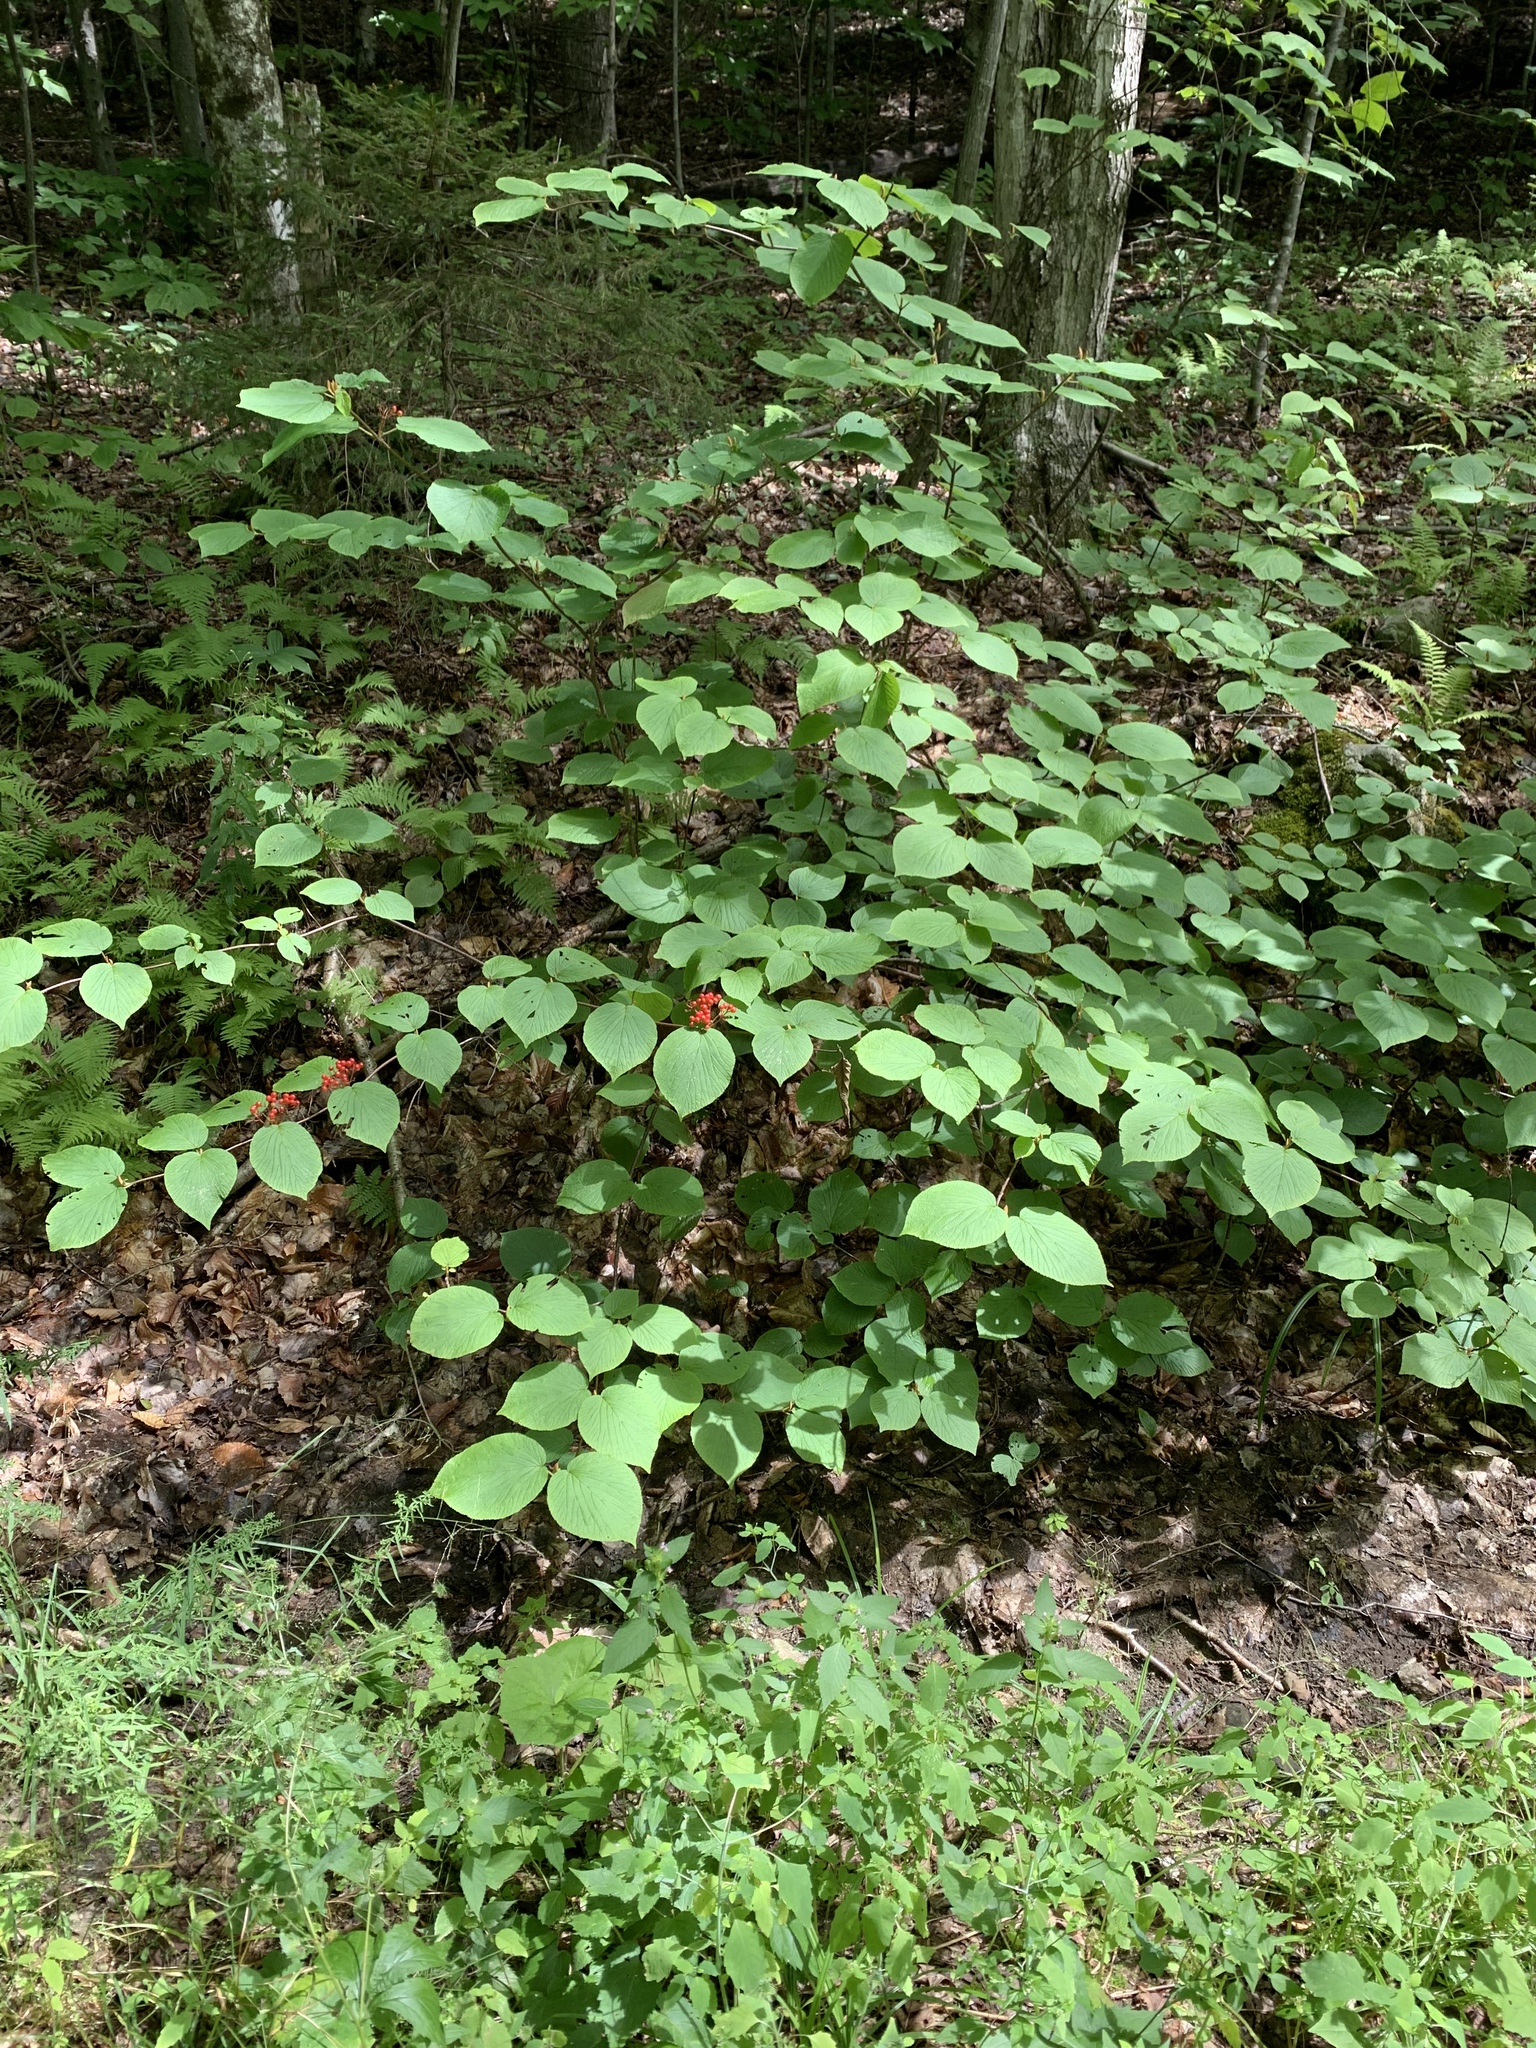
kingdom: Plantae
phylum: Tracheophyta
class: Magnoliopsida
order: Dipsacales
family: Viburnaceae
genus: Viburnum
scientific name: Viburnum lantanoides
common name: Hobblebush
